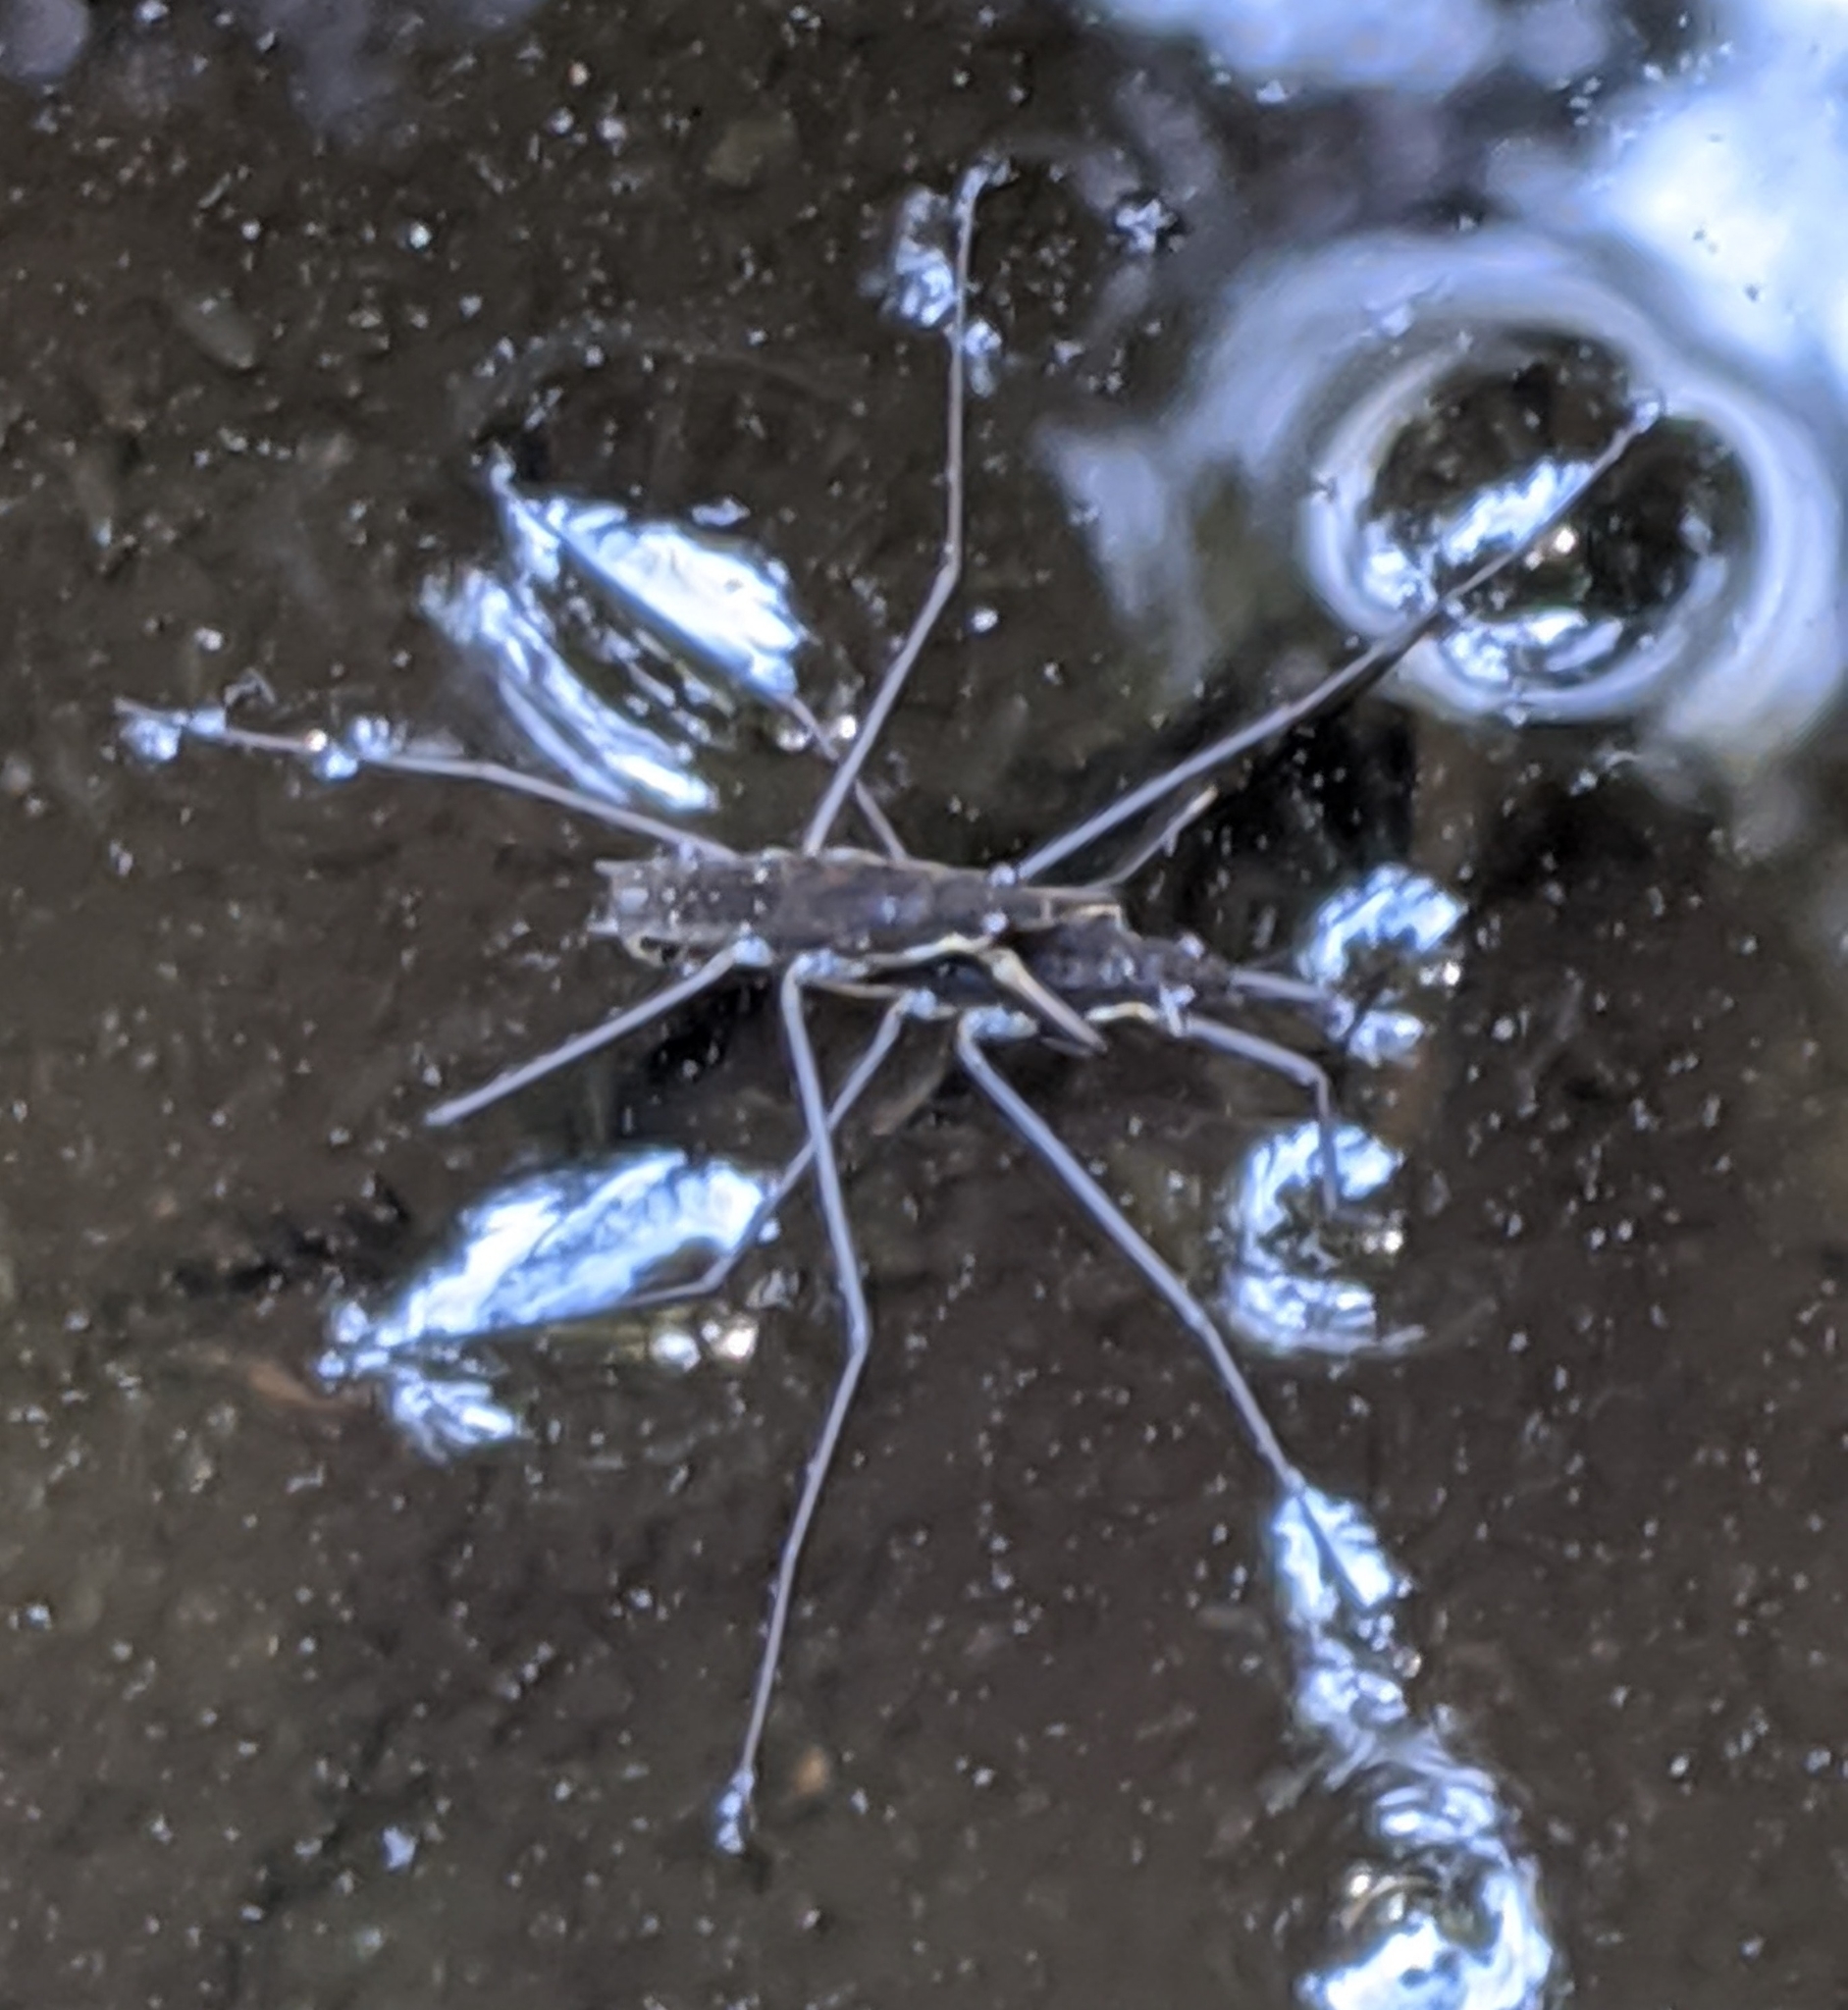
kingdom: Animalia
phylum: Arthropoda
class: Insecta
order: Hemiptera
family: Gerridae
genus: Aquarius
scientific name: Aquarius remigis
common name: Common water strider
